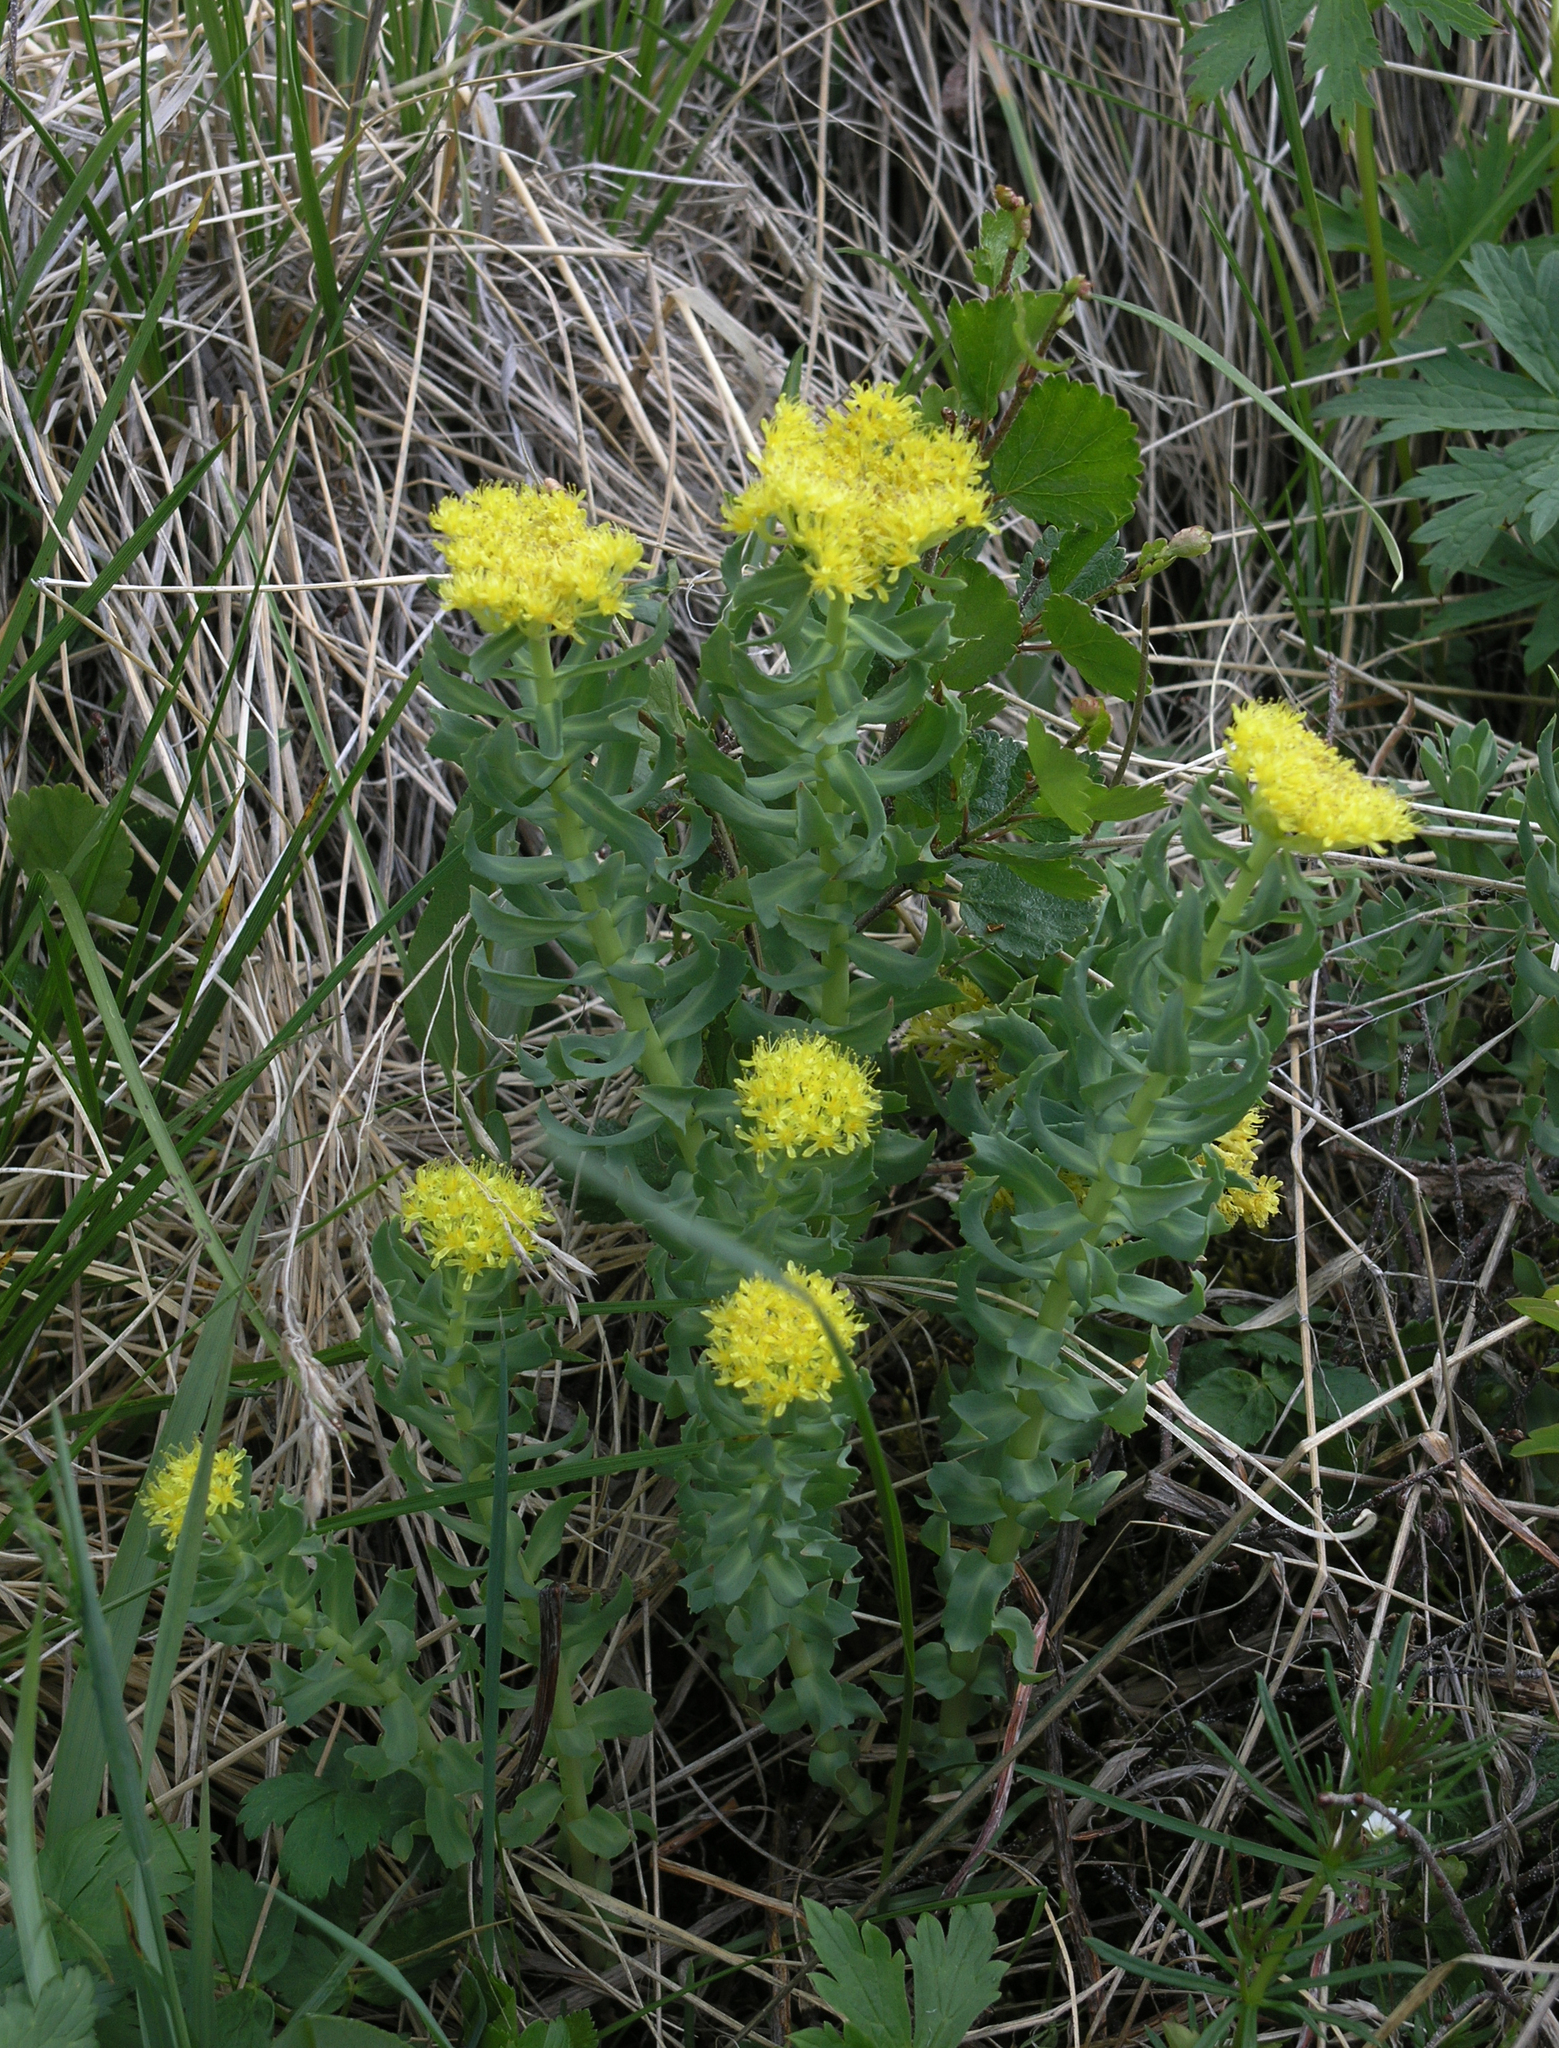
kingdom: Plantae
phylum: Tracheophyta
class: Magnoliopsida
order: Saxifragales
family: Crassulaceae
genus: Rhodiola
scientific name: Rhodiola rosea
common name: Roseroot
